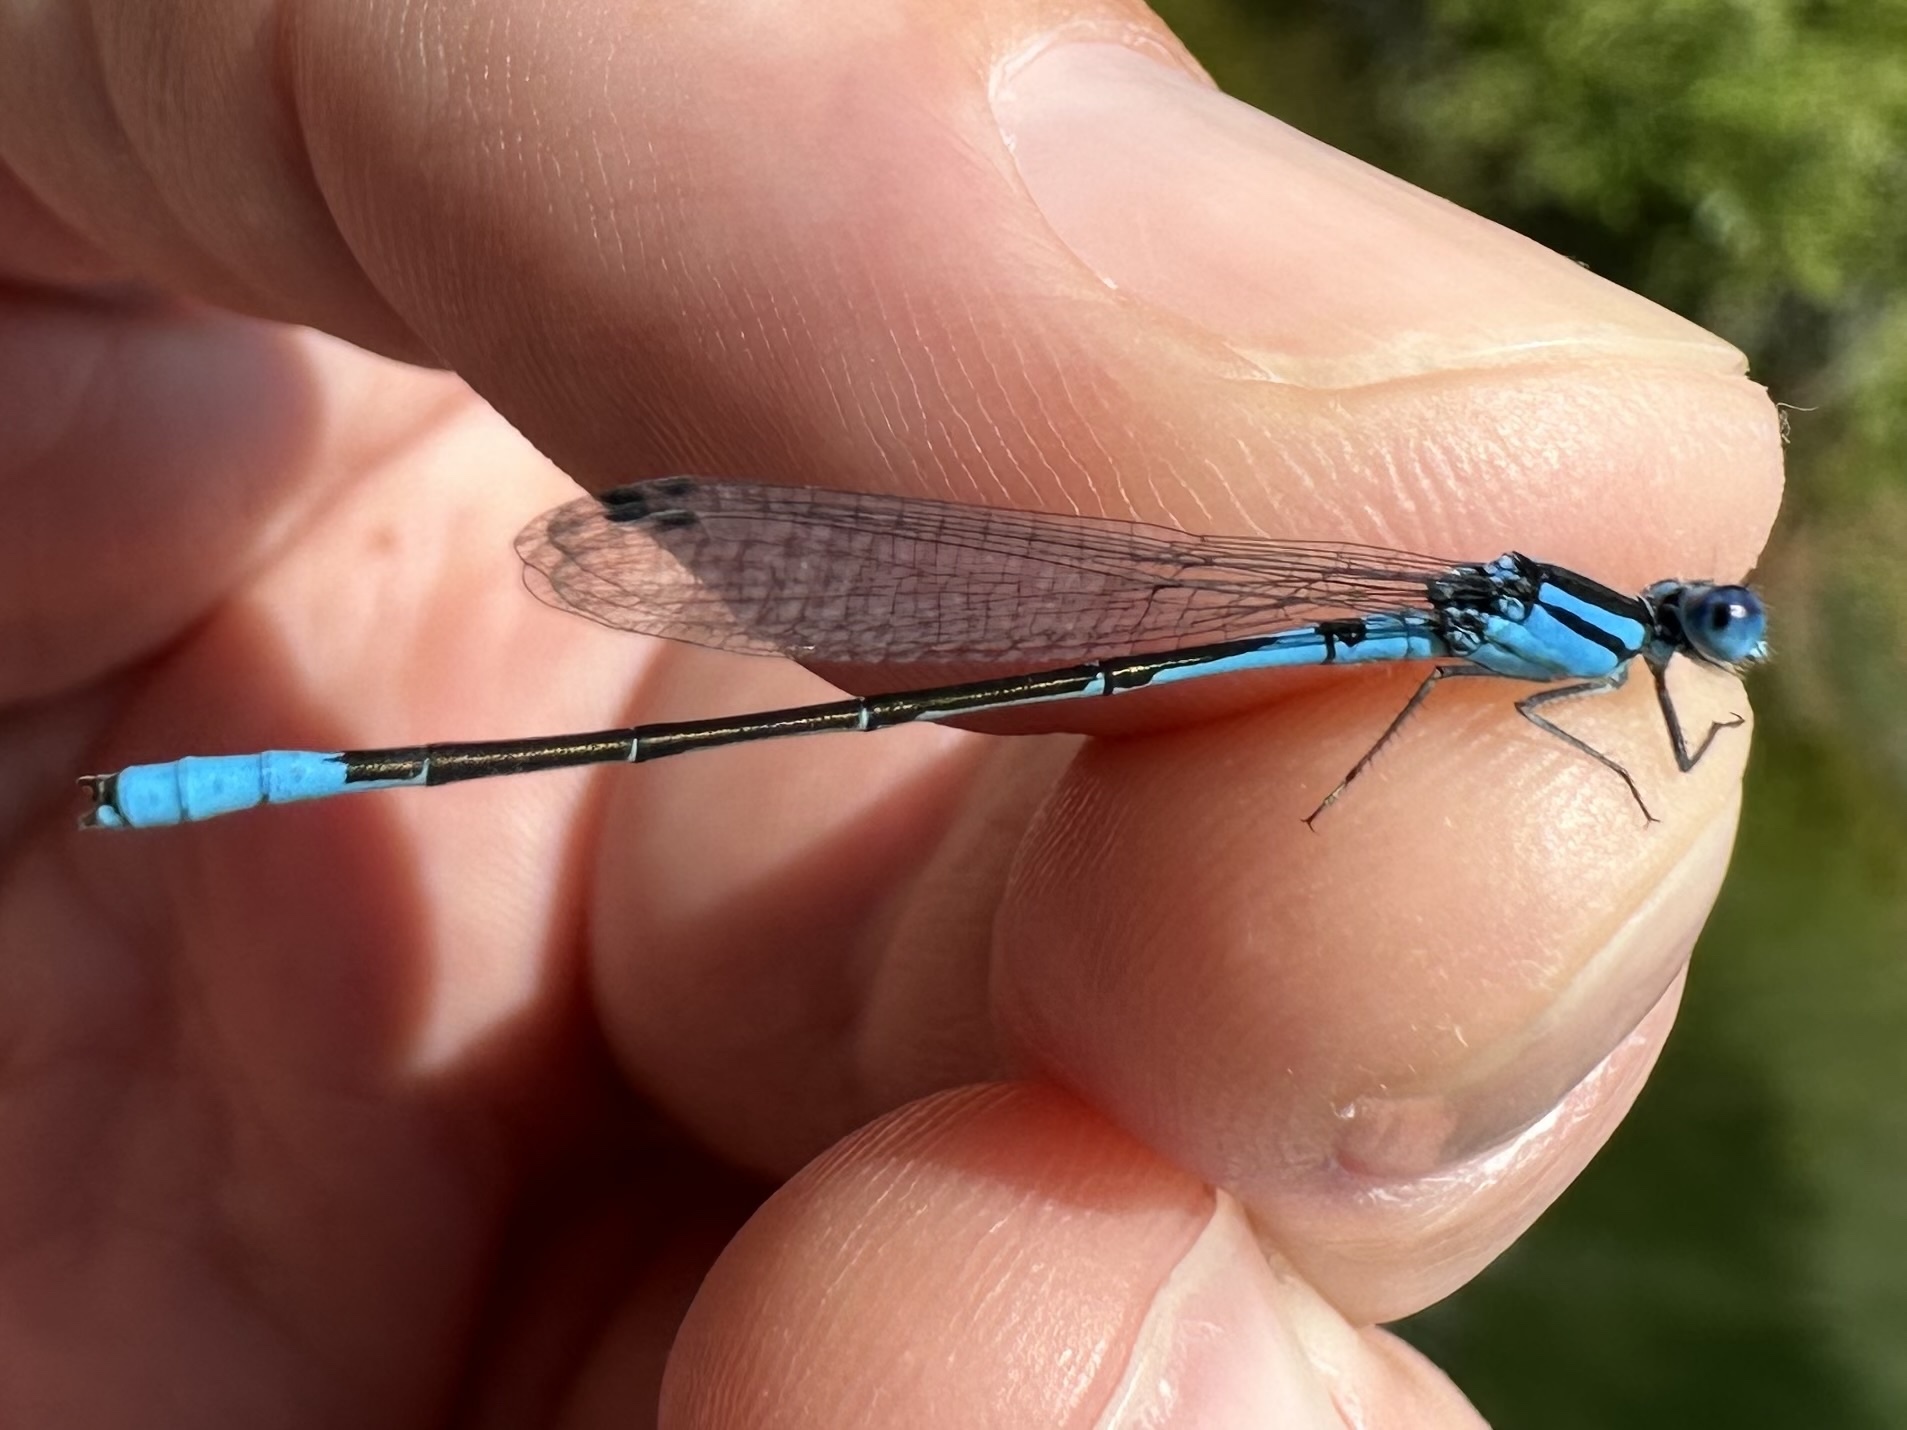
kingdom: Animalia
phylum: Arthropoda
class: Insecta
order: Odonata
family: Coenagrionidae
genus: Enallagma
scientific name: Enallagma aspersum
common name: Azure bluet
